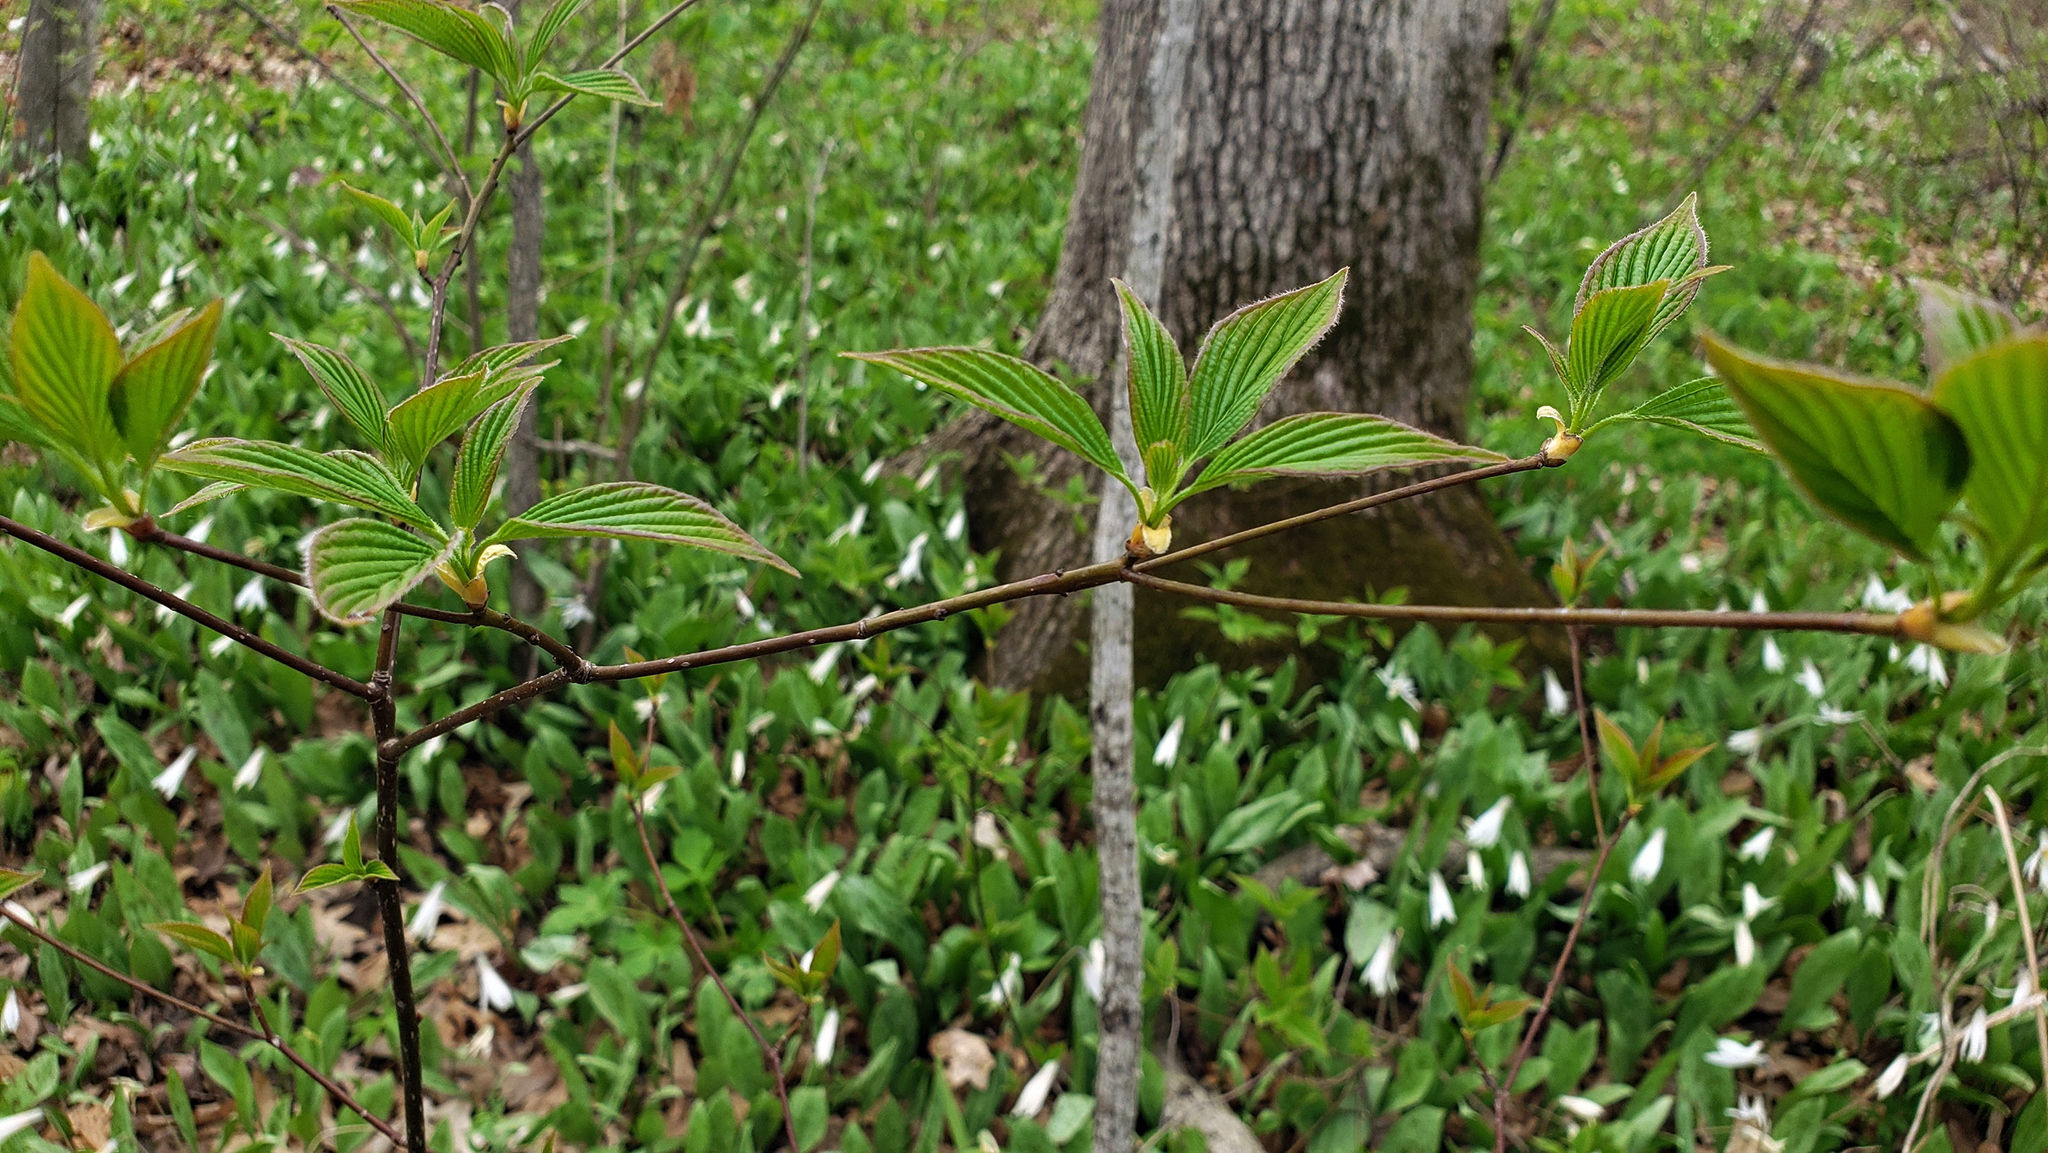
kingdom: Plantae
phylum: Tracheophyta
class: Magnoliopsida
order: Cornales
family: Cornaceae
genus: Cornus
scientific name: Cornus alternifolia
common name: Pagoda dogwood
